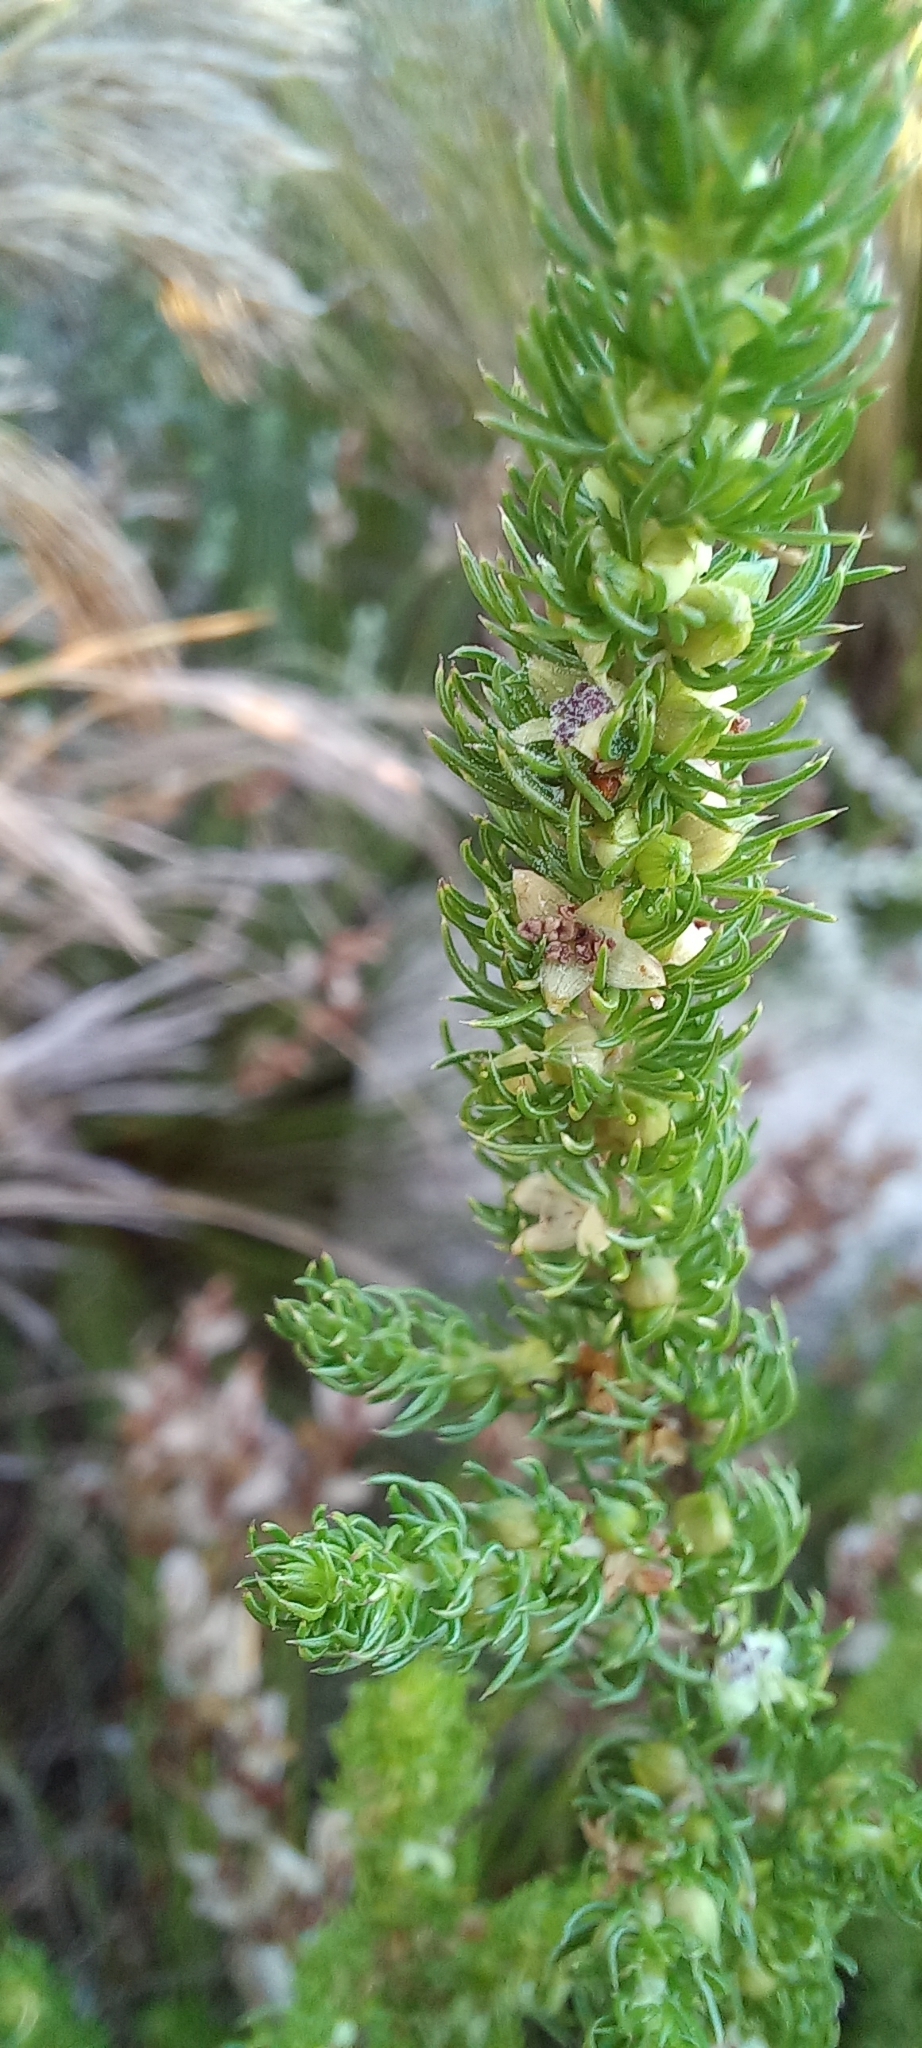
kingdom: Plantae
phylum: Tracheophyta
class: Magnoliopsida
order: Rosales
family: Rosaceae
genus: Cliffortia
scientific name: Cliffortia falcata
